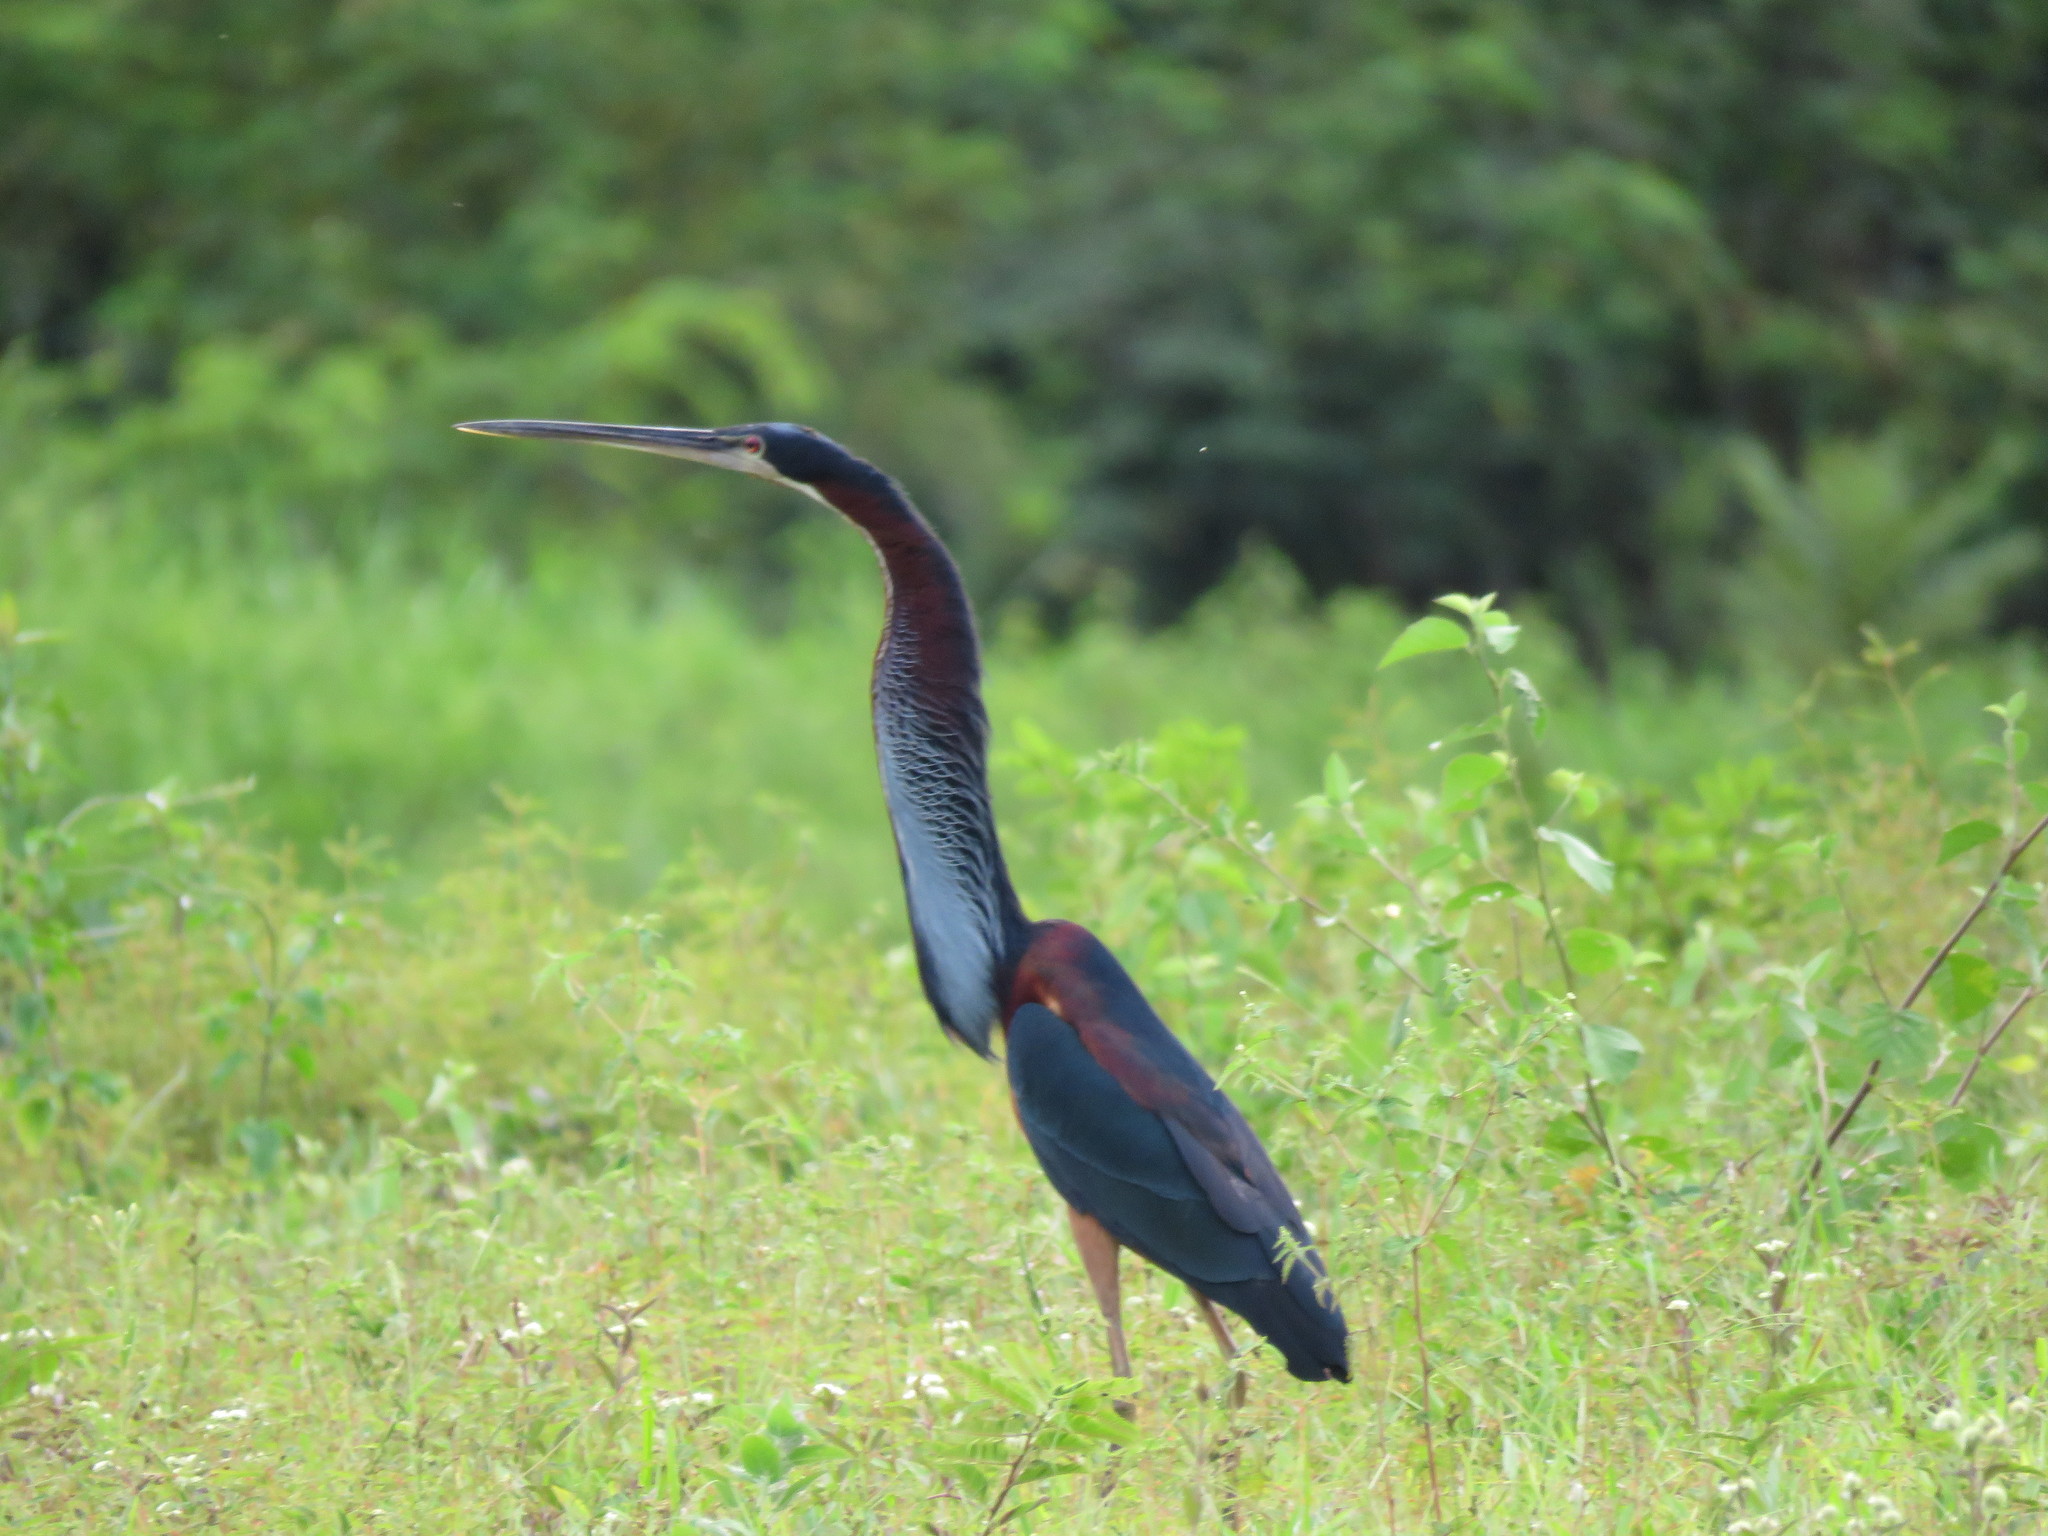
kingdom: Animalia
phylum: Chordata
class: Aves
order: Pelecaniformes
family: Ardeidae
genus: Agamia
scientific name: Agamia agami
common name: Agami heron
